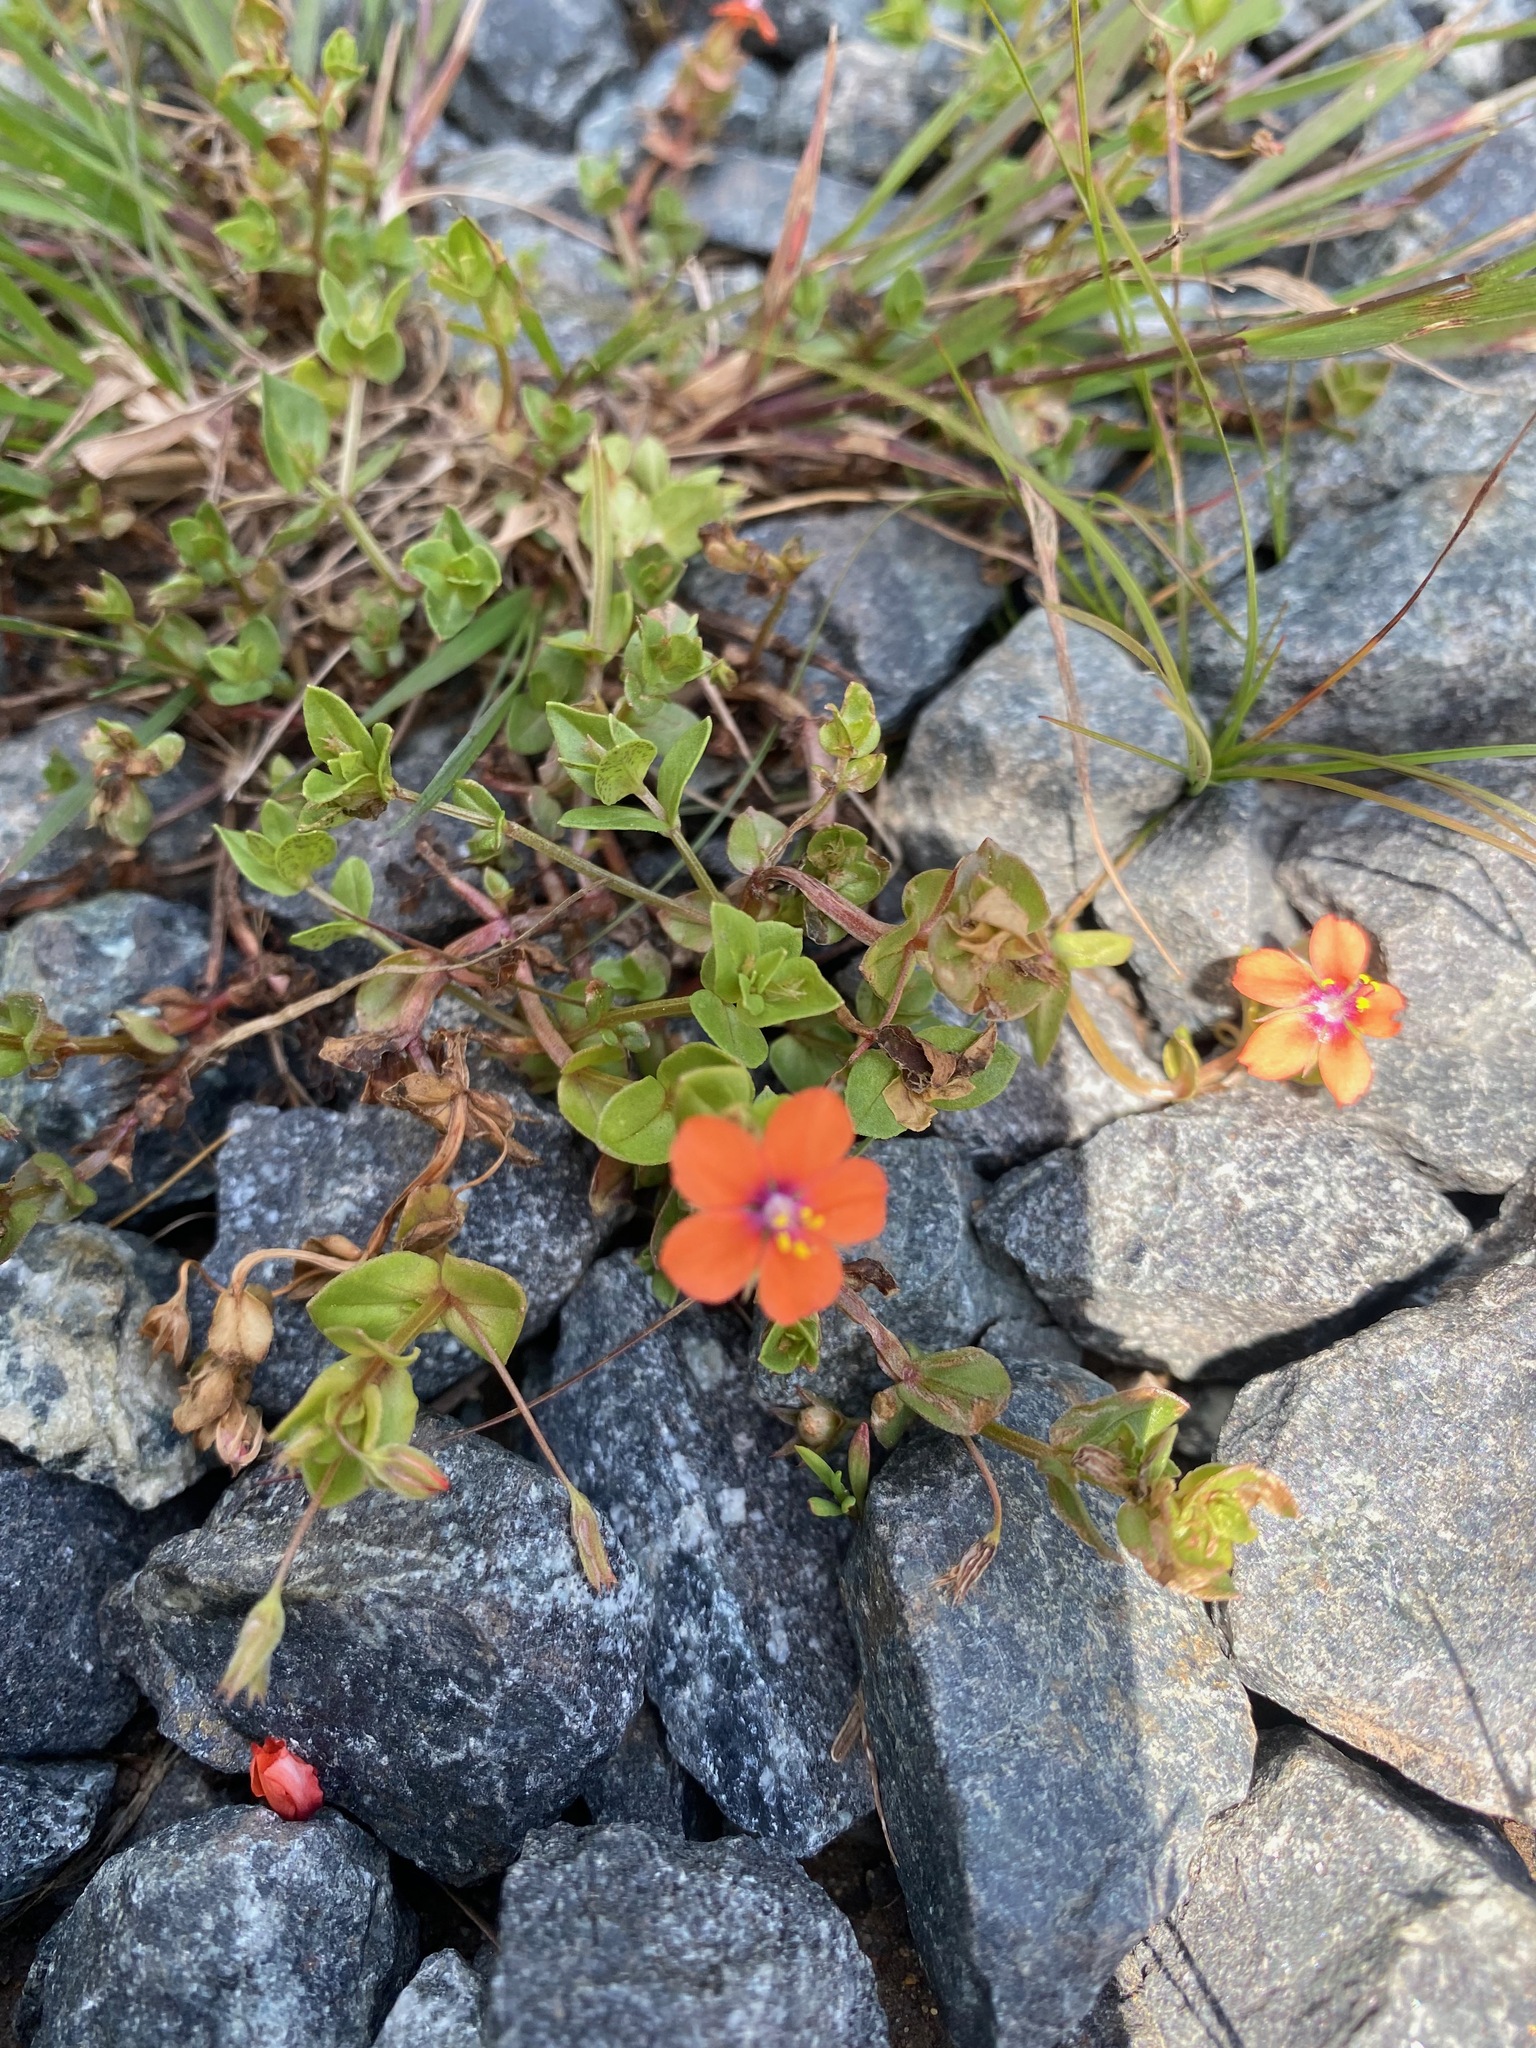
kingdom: Plantae
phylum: Tracheophyta
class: Magnoliopsida
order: Ericales
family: Primulaceae
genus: Lysimachia
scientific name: Lysimachia arvensis
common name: Scarlet pimpernel
